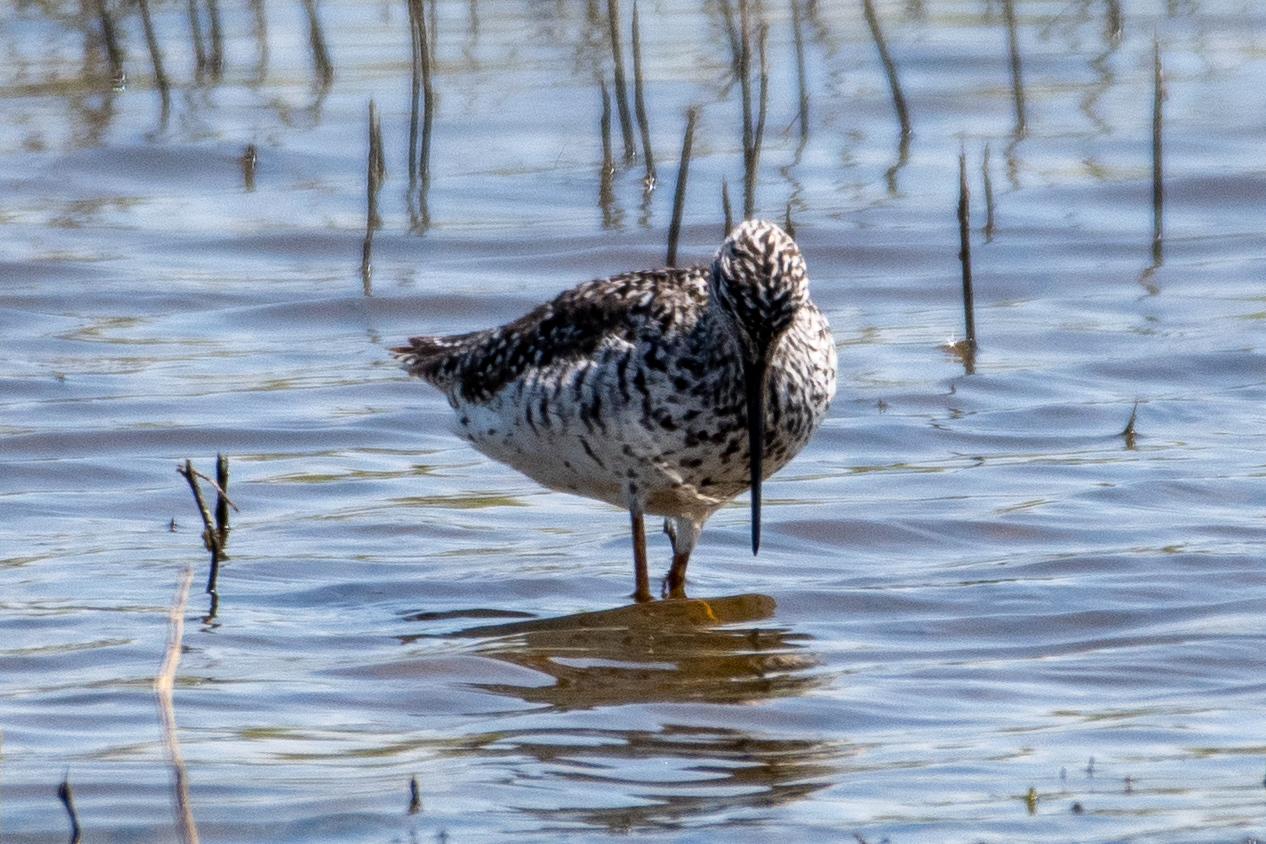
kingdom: Animalia
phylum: Chordata
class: Aves
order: Charadriiformes
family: Scolopacidae
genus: Tringa
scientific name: Tringa melanoleuca
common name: Greater yellowlegs
